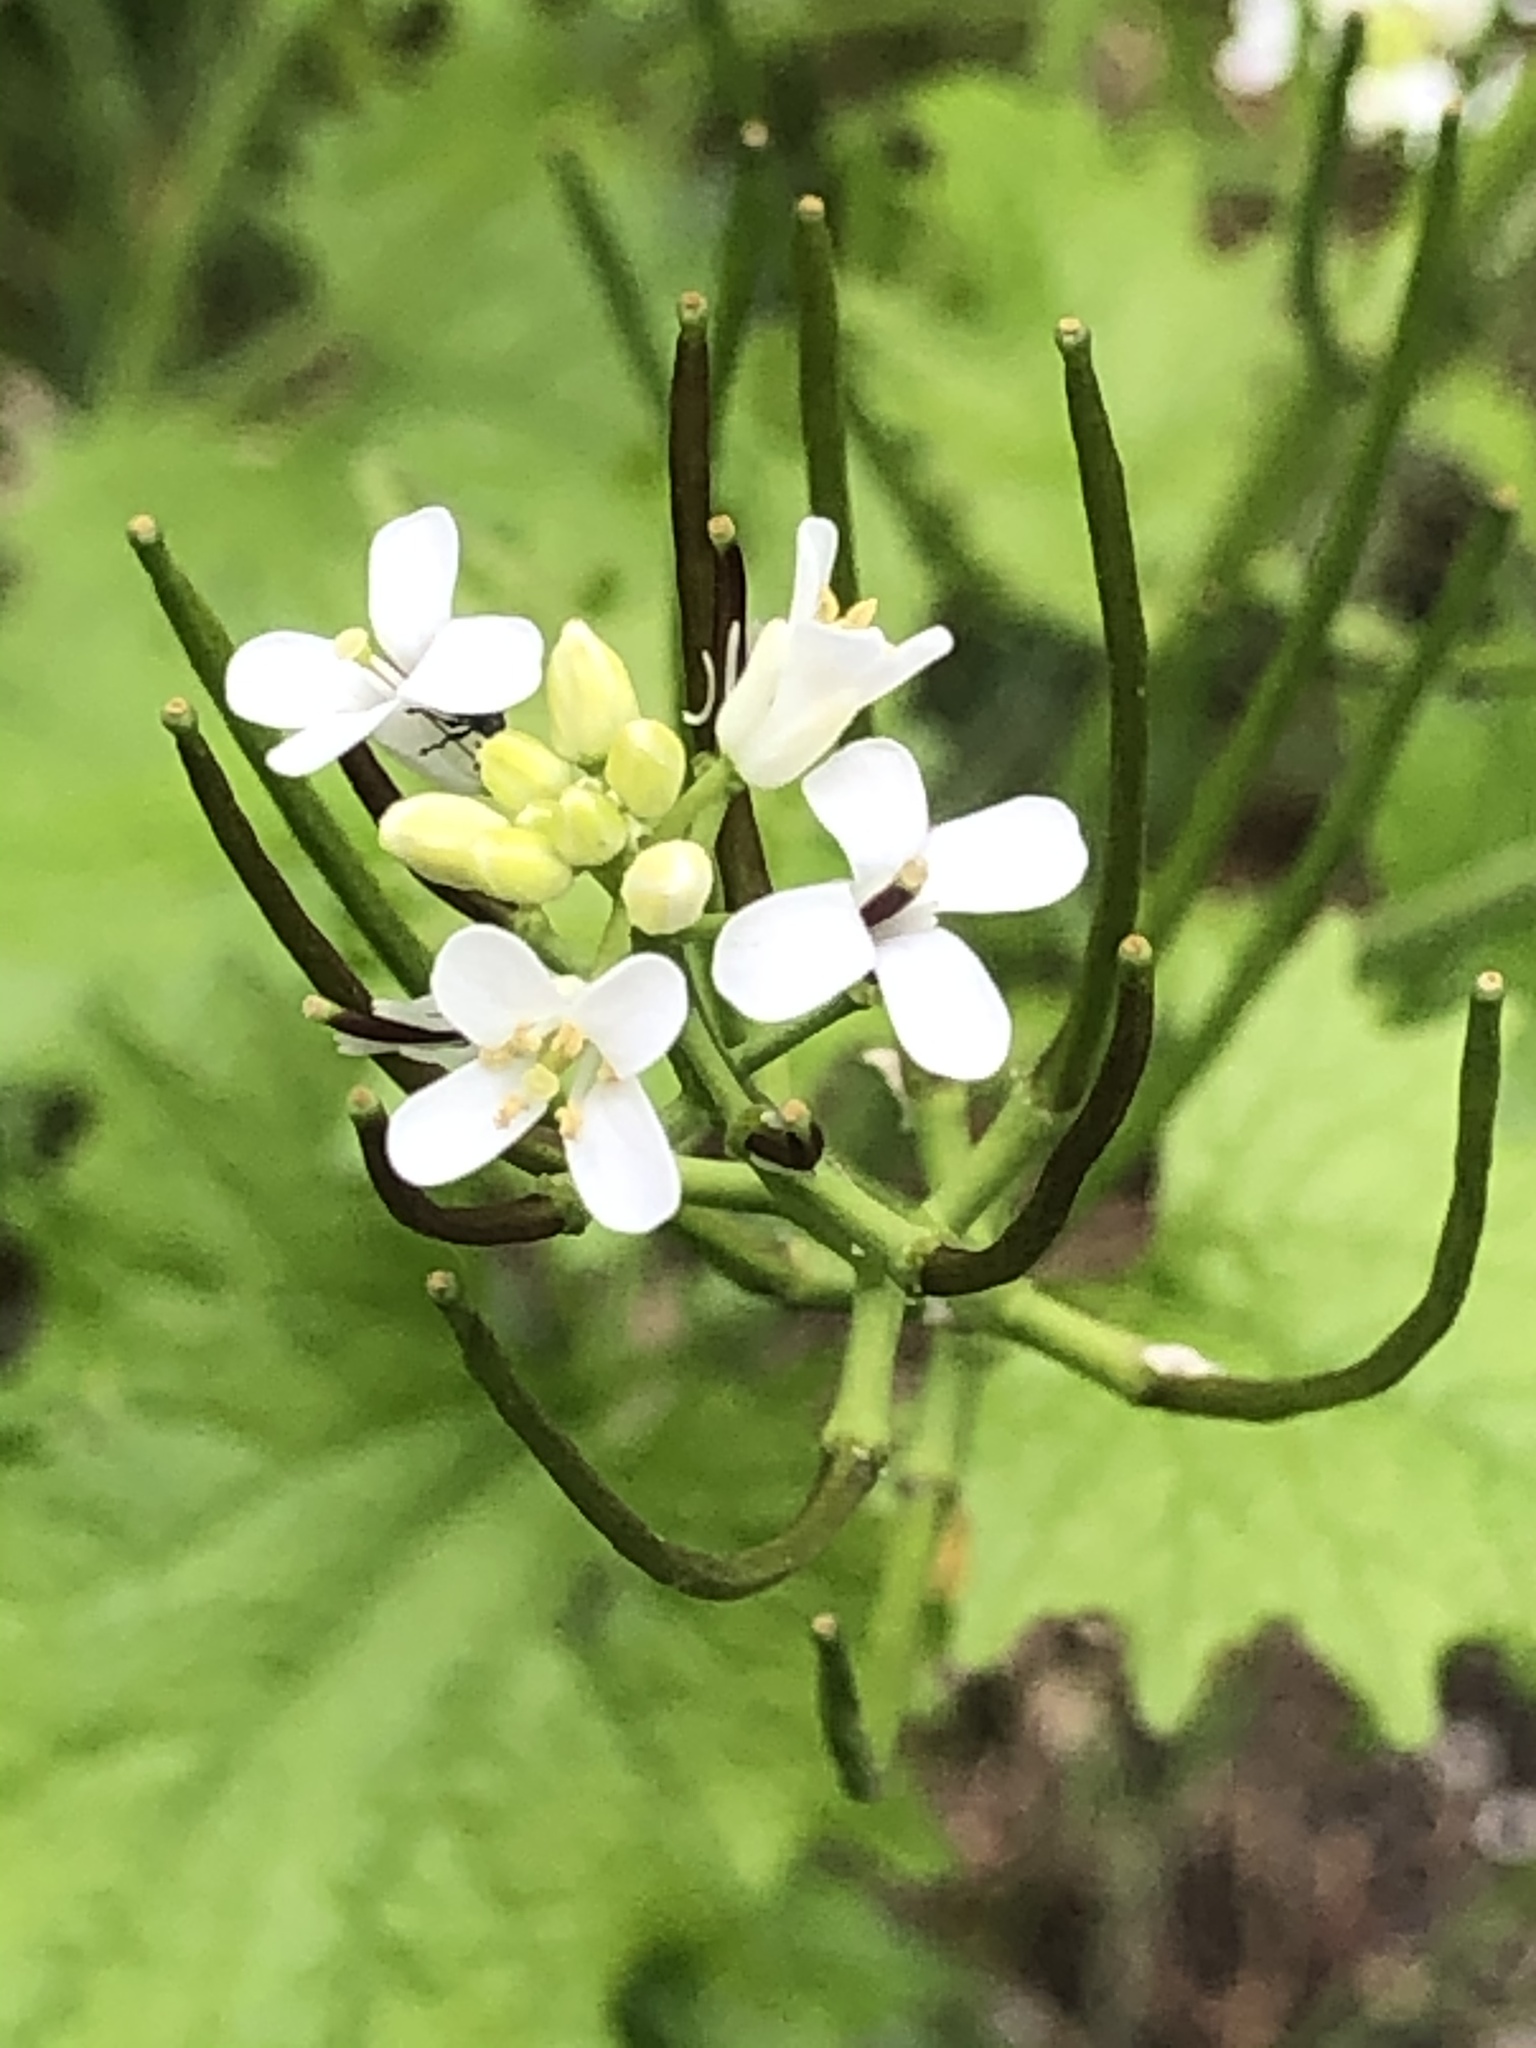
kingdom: Plantae
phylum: Tracheophyta
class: Magnoliopsida
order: Brassicales
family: Brassicaceae
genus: Alliaria
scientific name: Alliaria petiolata
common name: Garlic mustard
